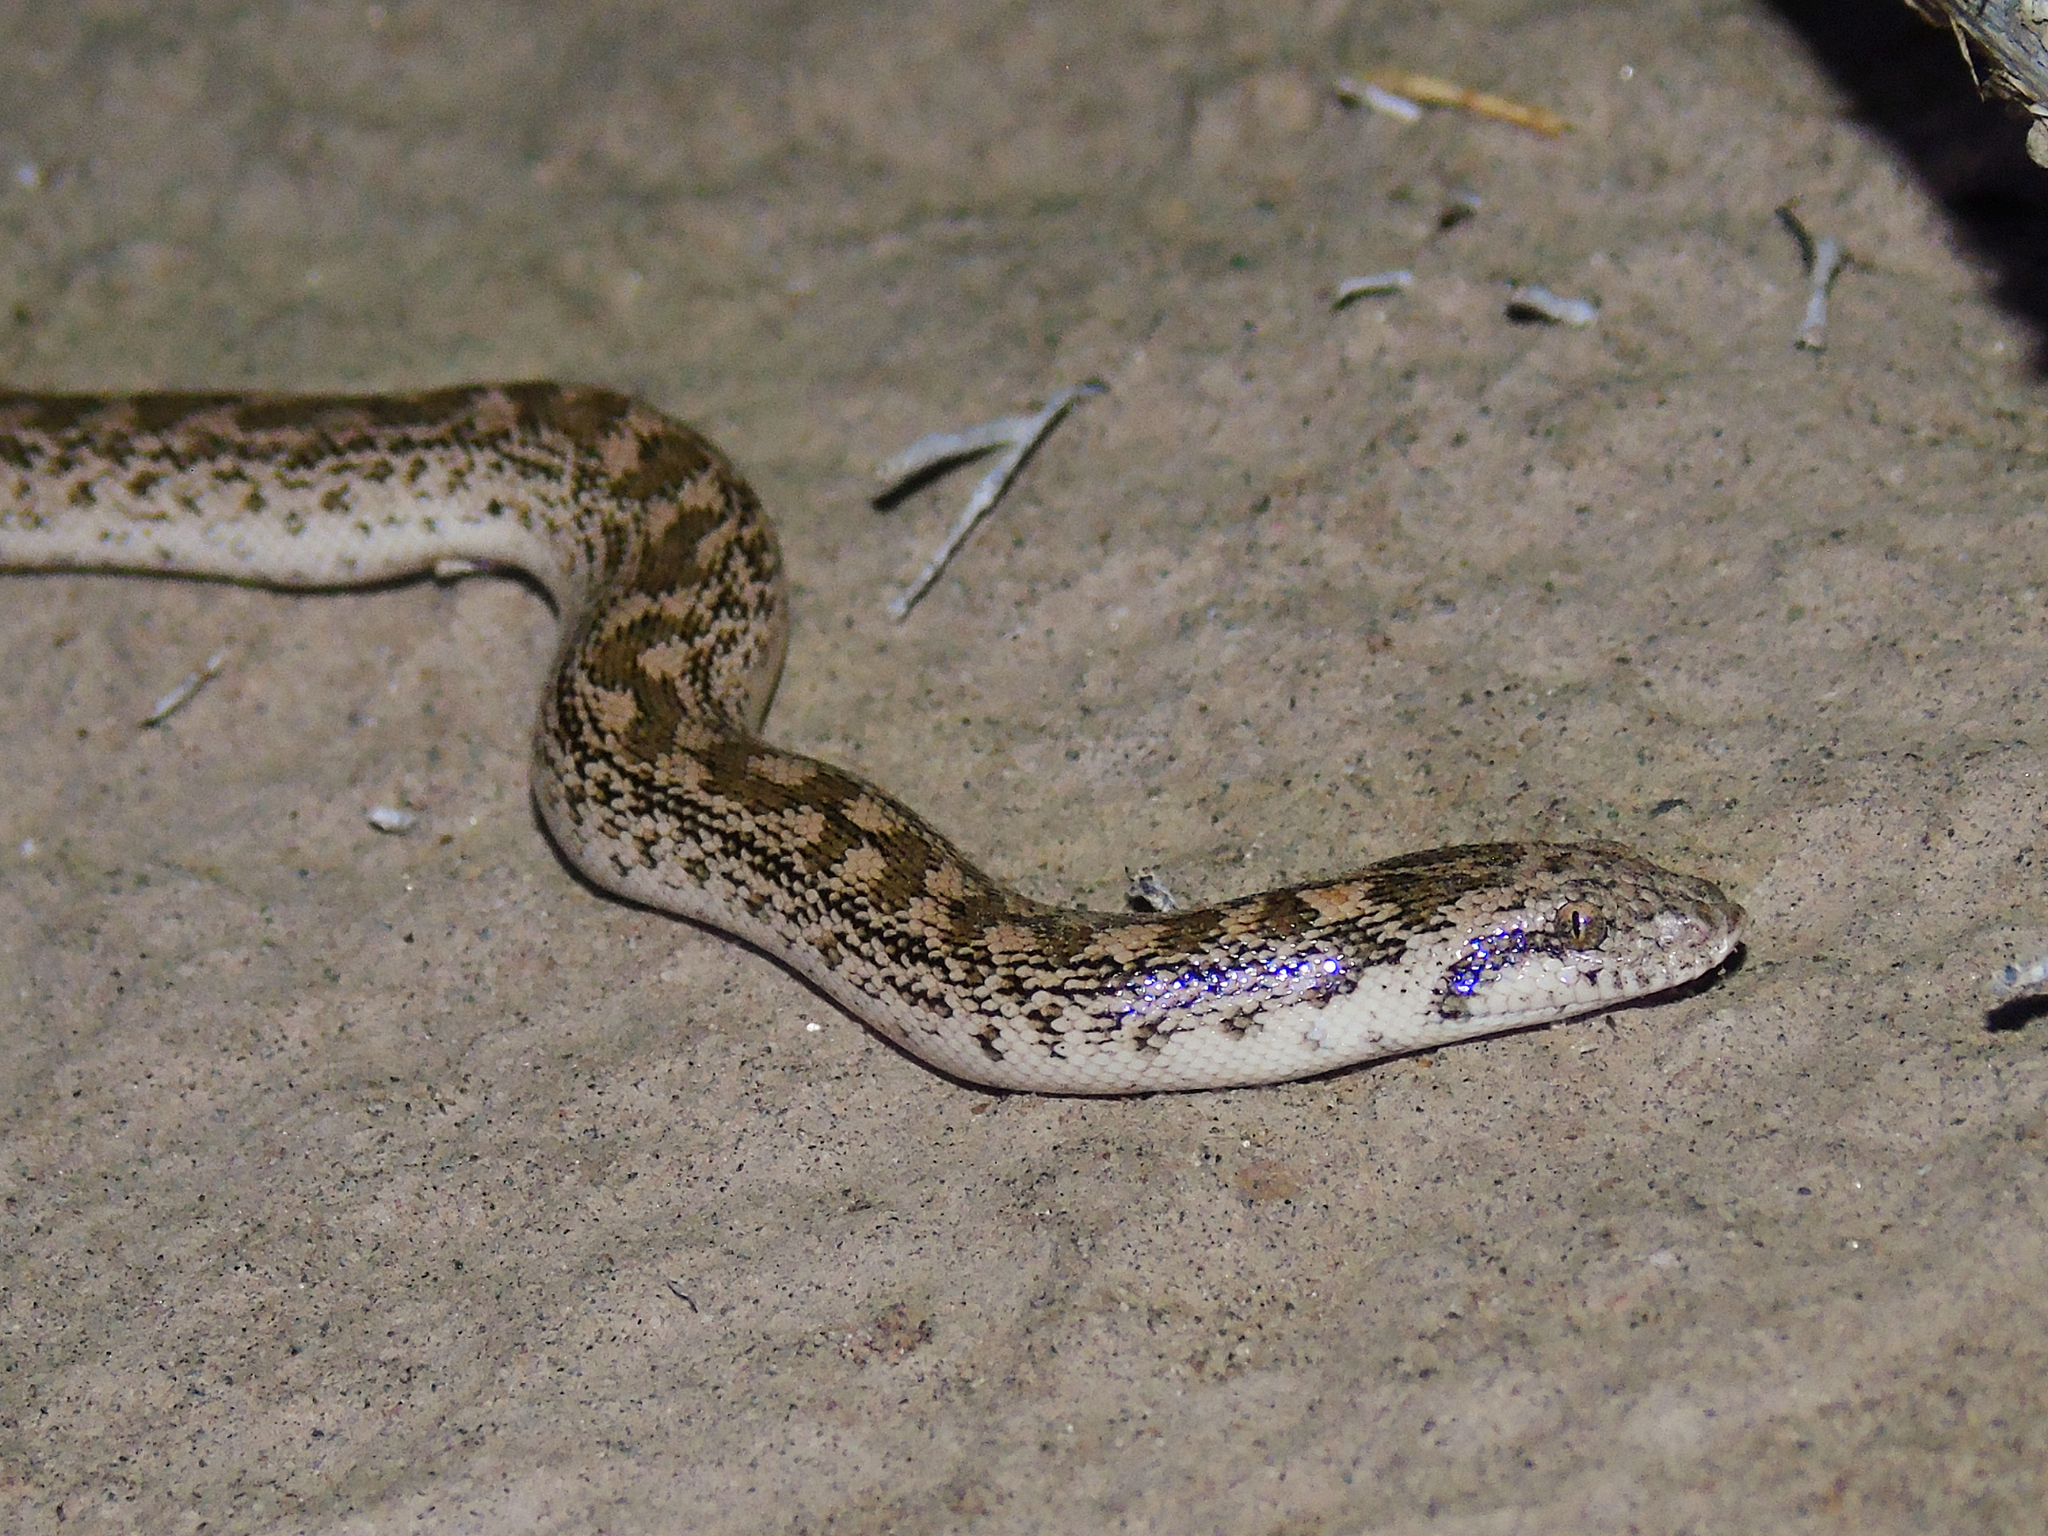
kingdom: Animalia
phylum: Chordata
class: Squamata
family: Boidae
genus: Eryx
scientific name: Eryx miliaris
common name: Desert sand boa
